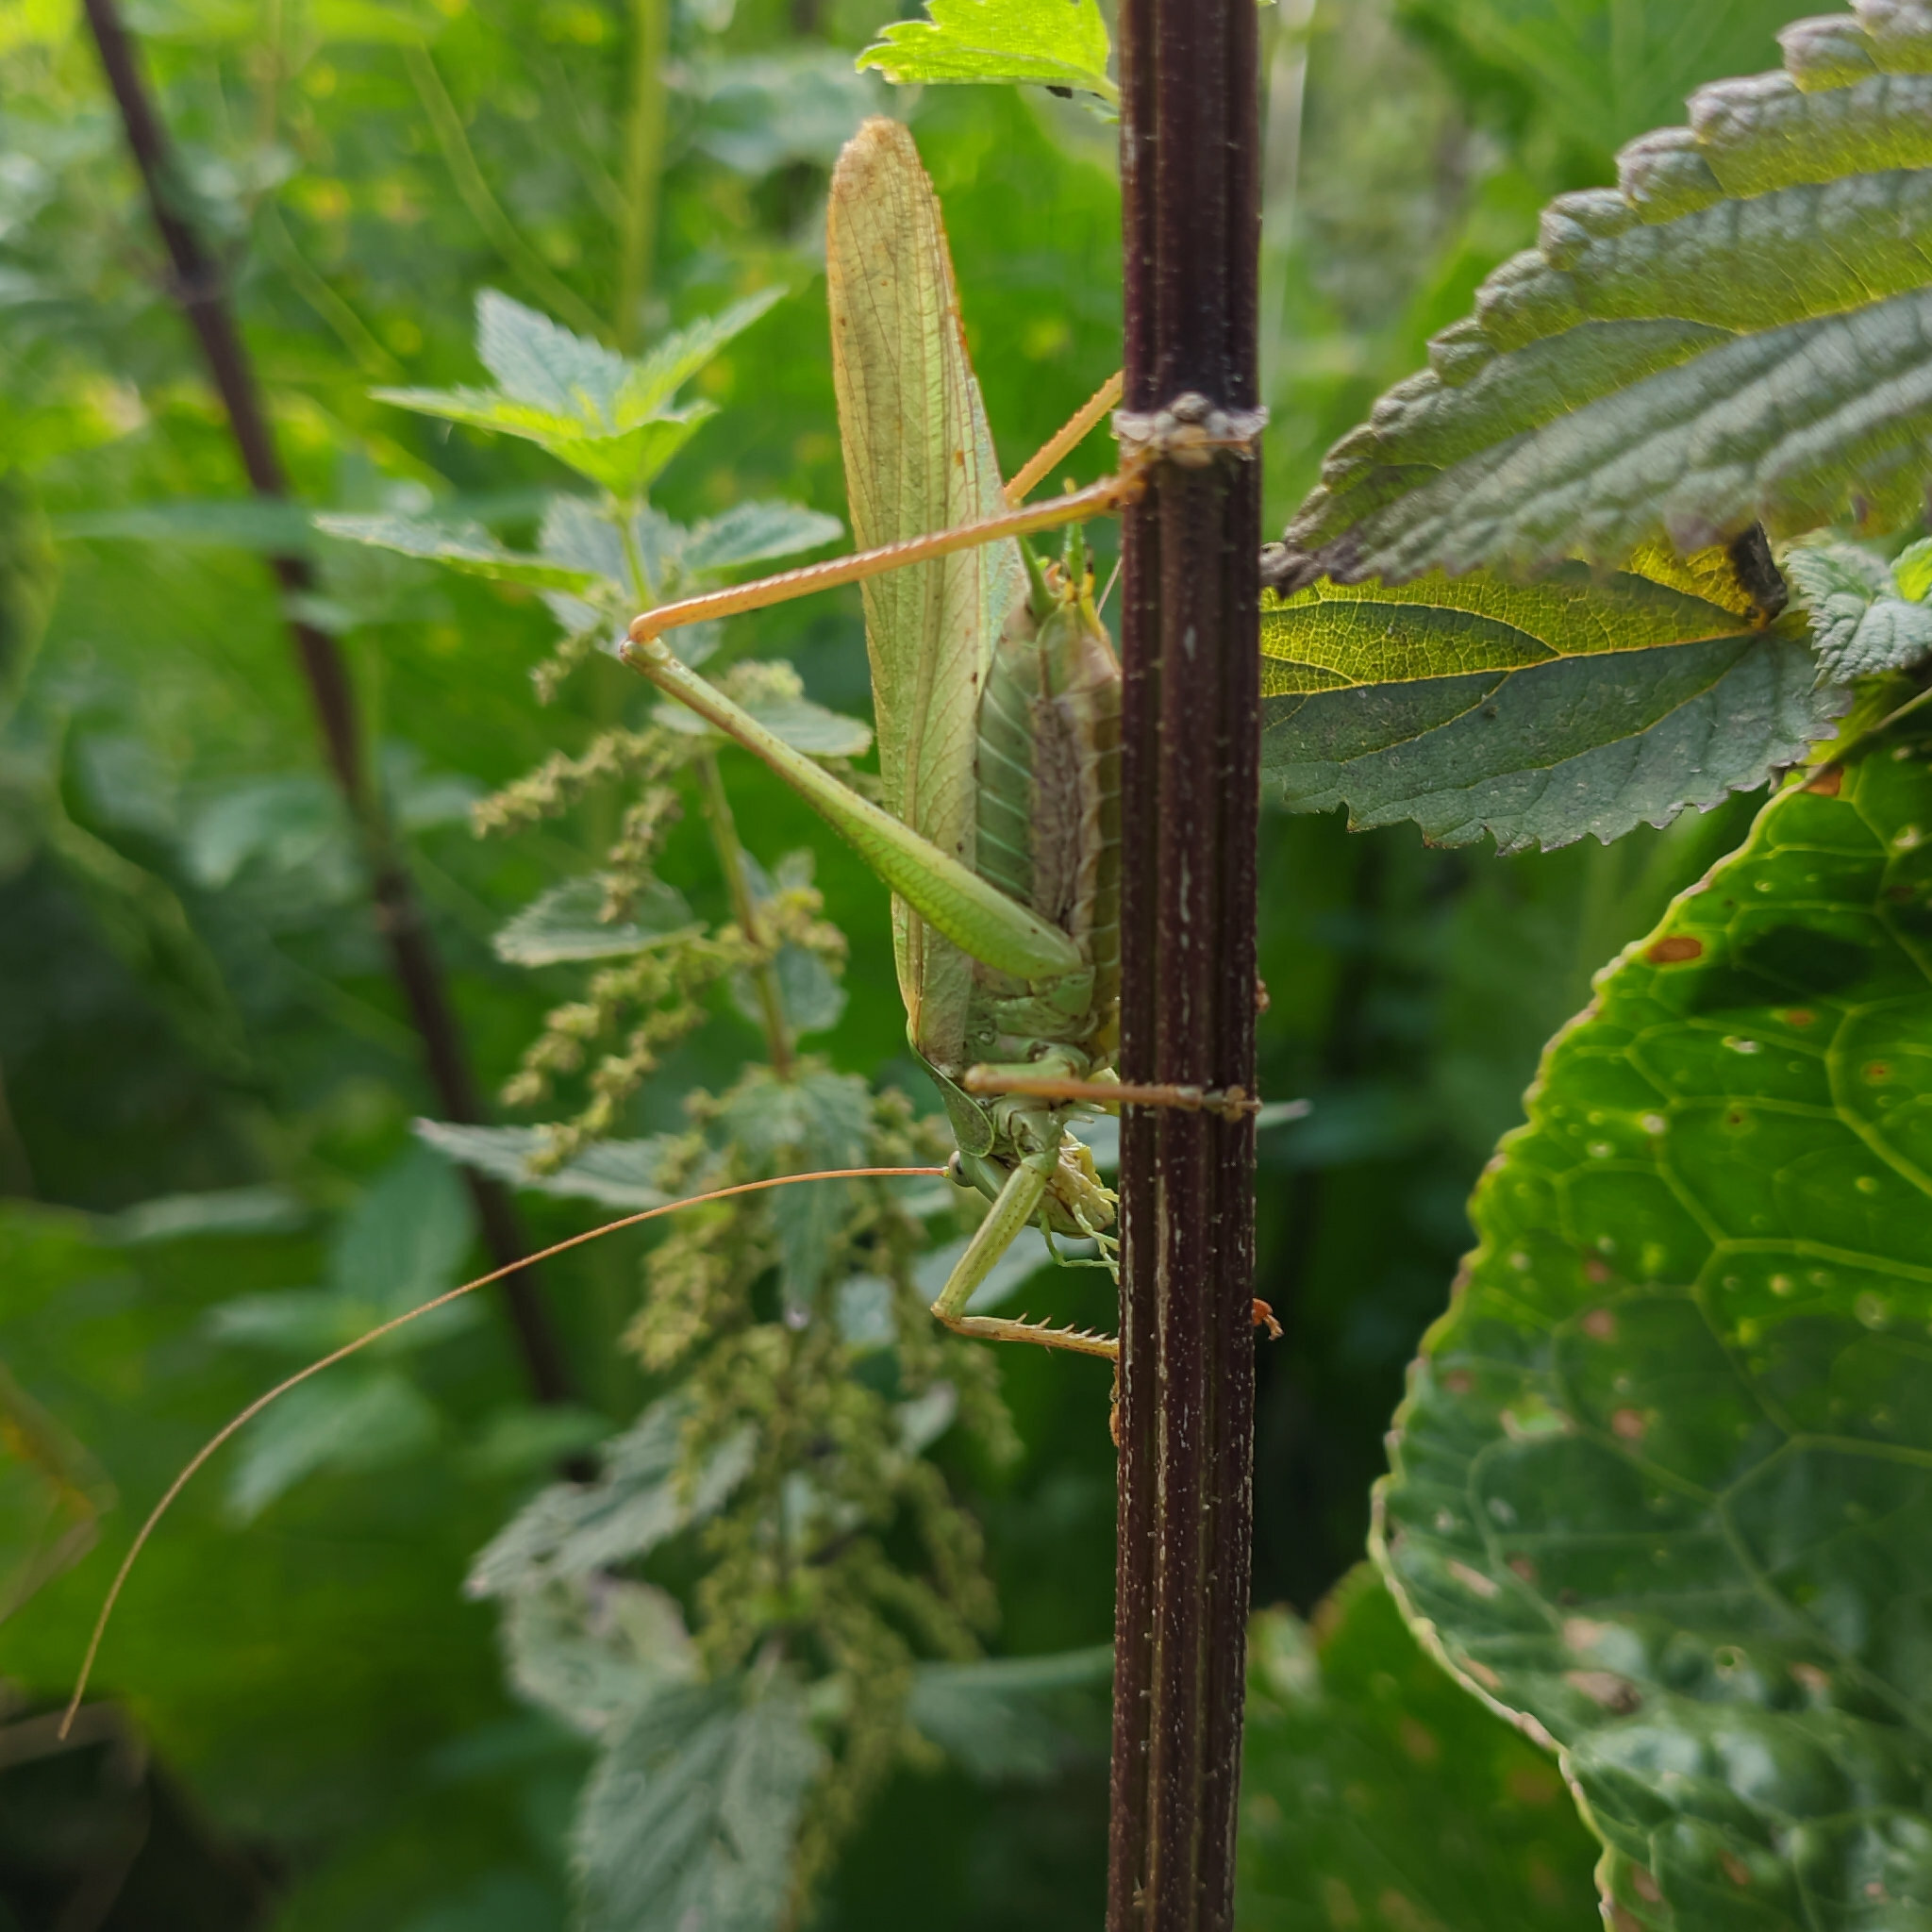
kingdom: Animalia
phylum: Arthropoda
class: Insecta
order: Orthoptera
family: Tettigoniidae
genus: Tettigonia
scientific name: Tettigonia viridissima
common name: Great green bush-cricket
